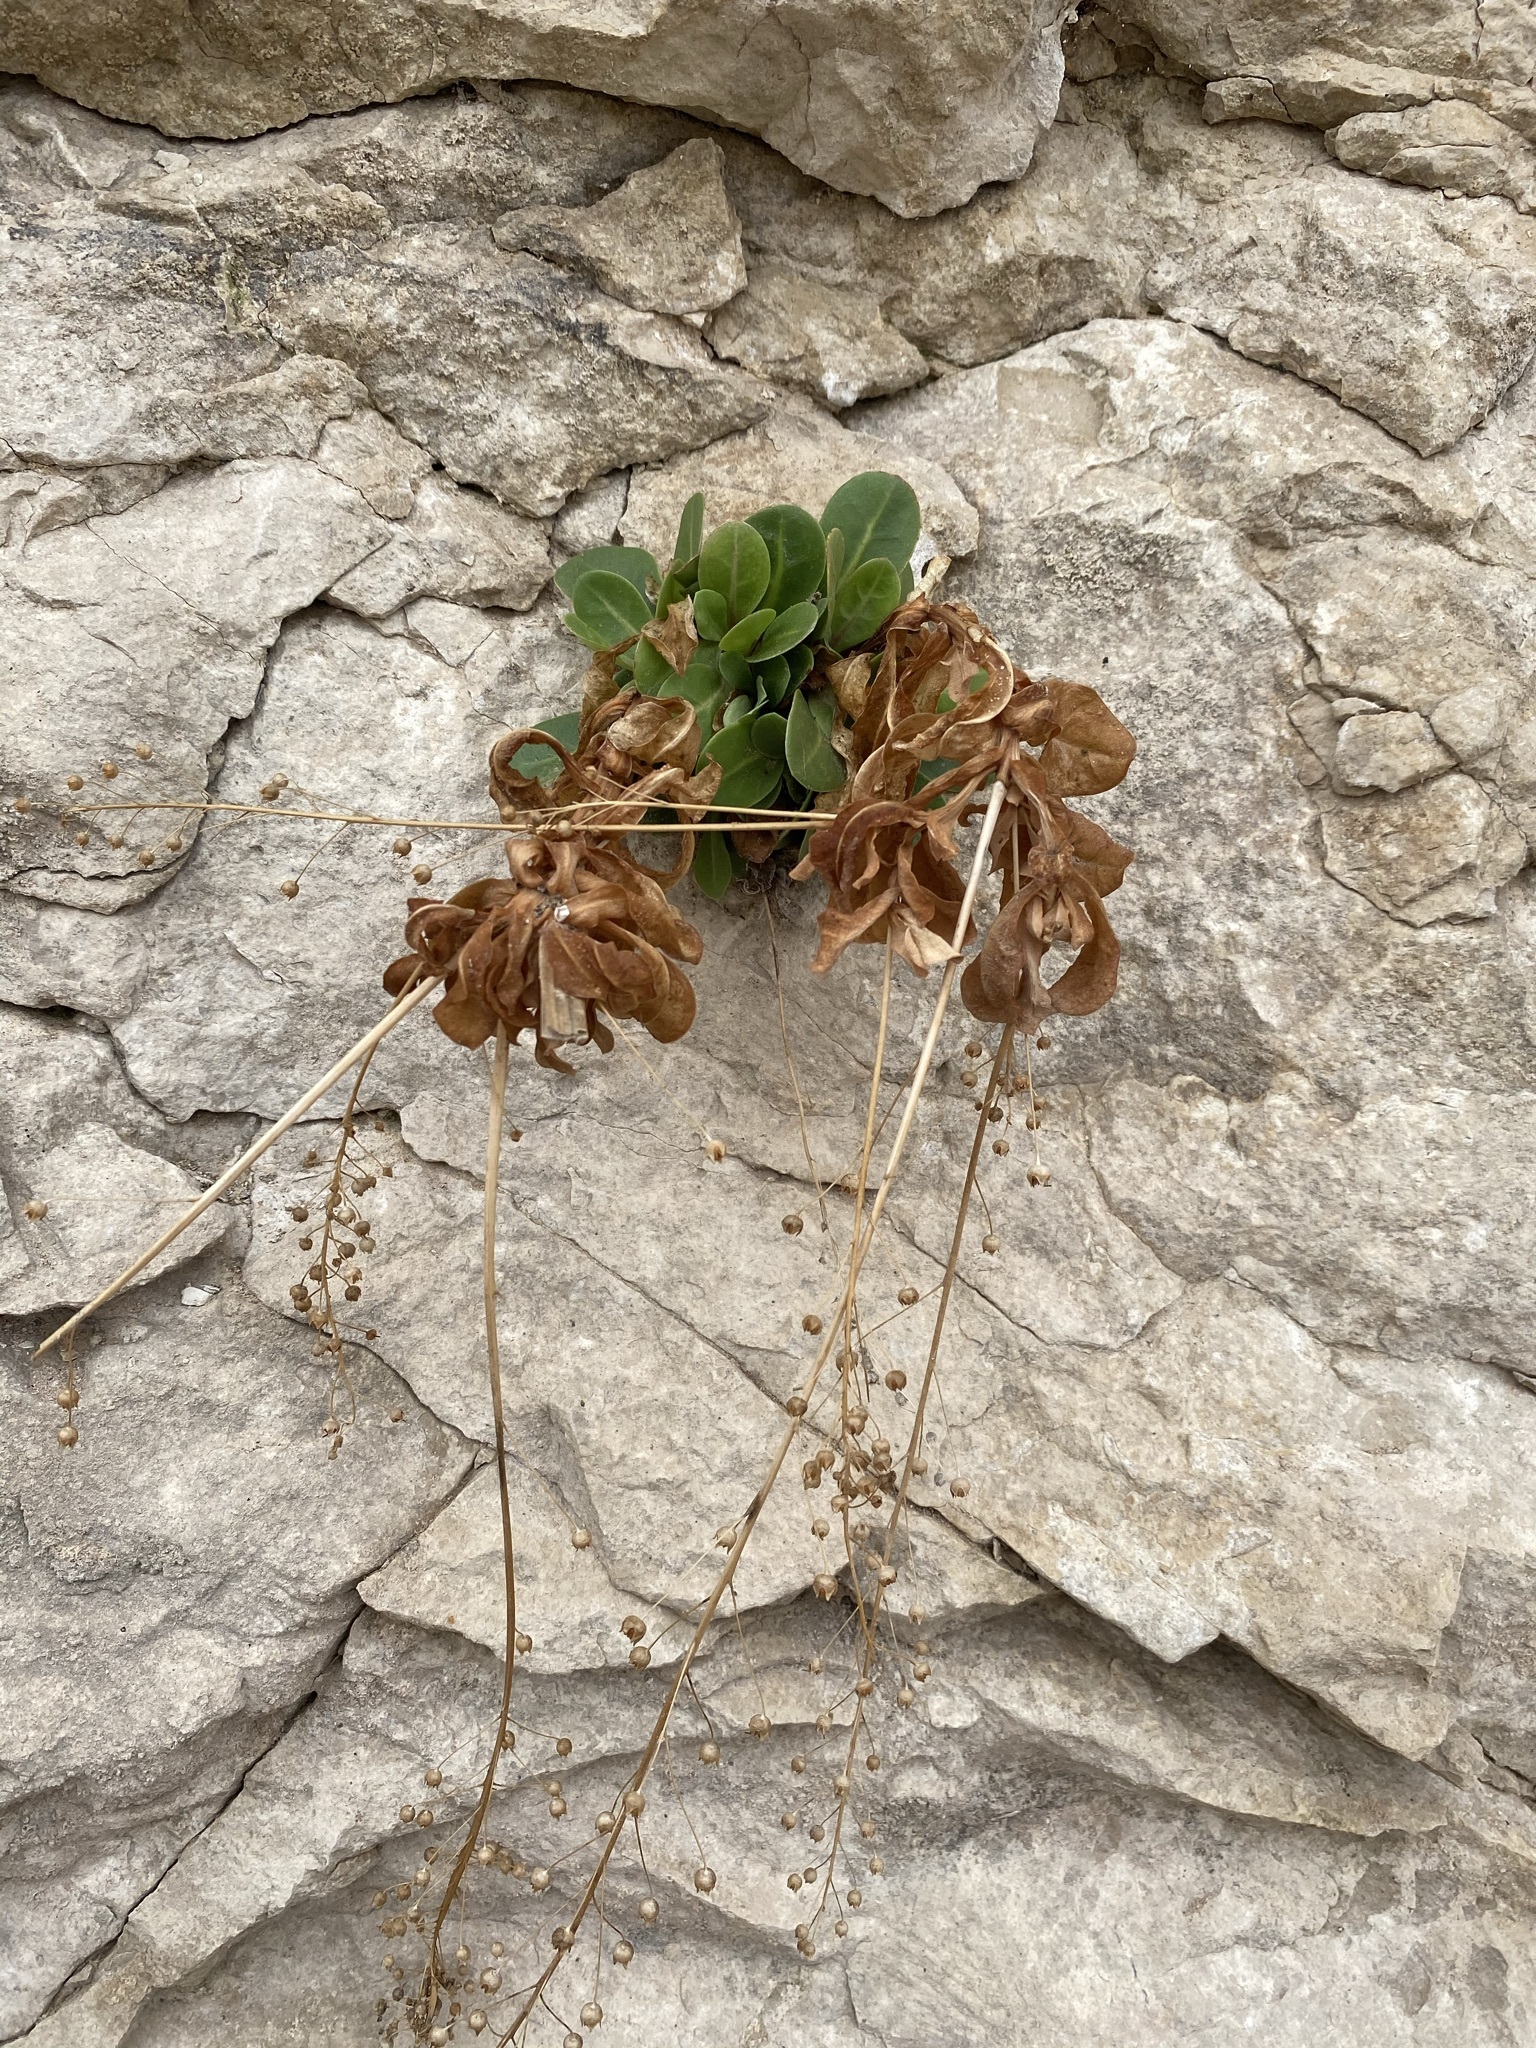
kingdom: Plantae
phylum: Tracheophyta
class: Magnoliopsida
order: Ericales
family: Primulaceae
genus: Samolus
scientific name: Samolus ebracteatus
